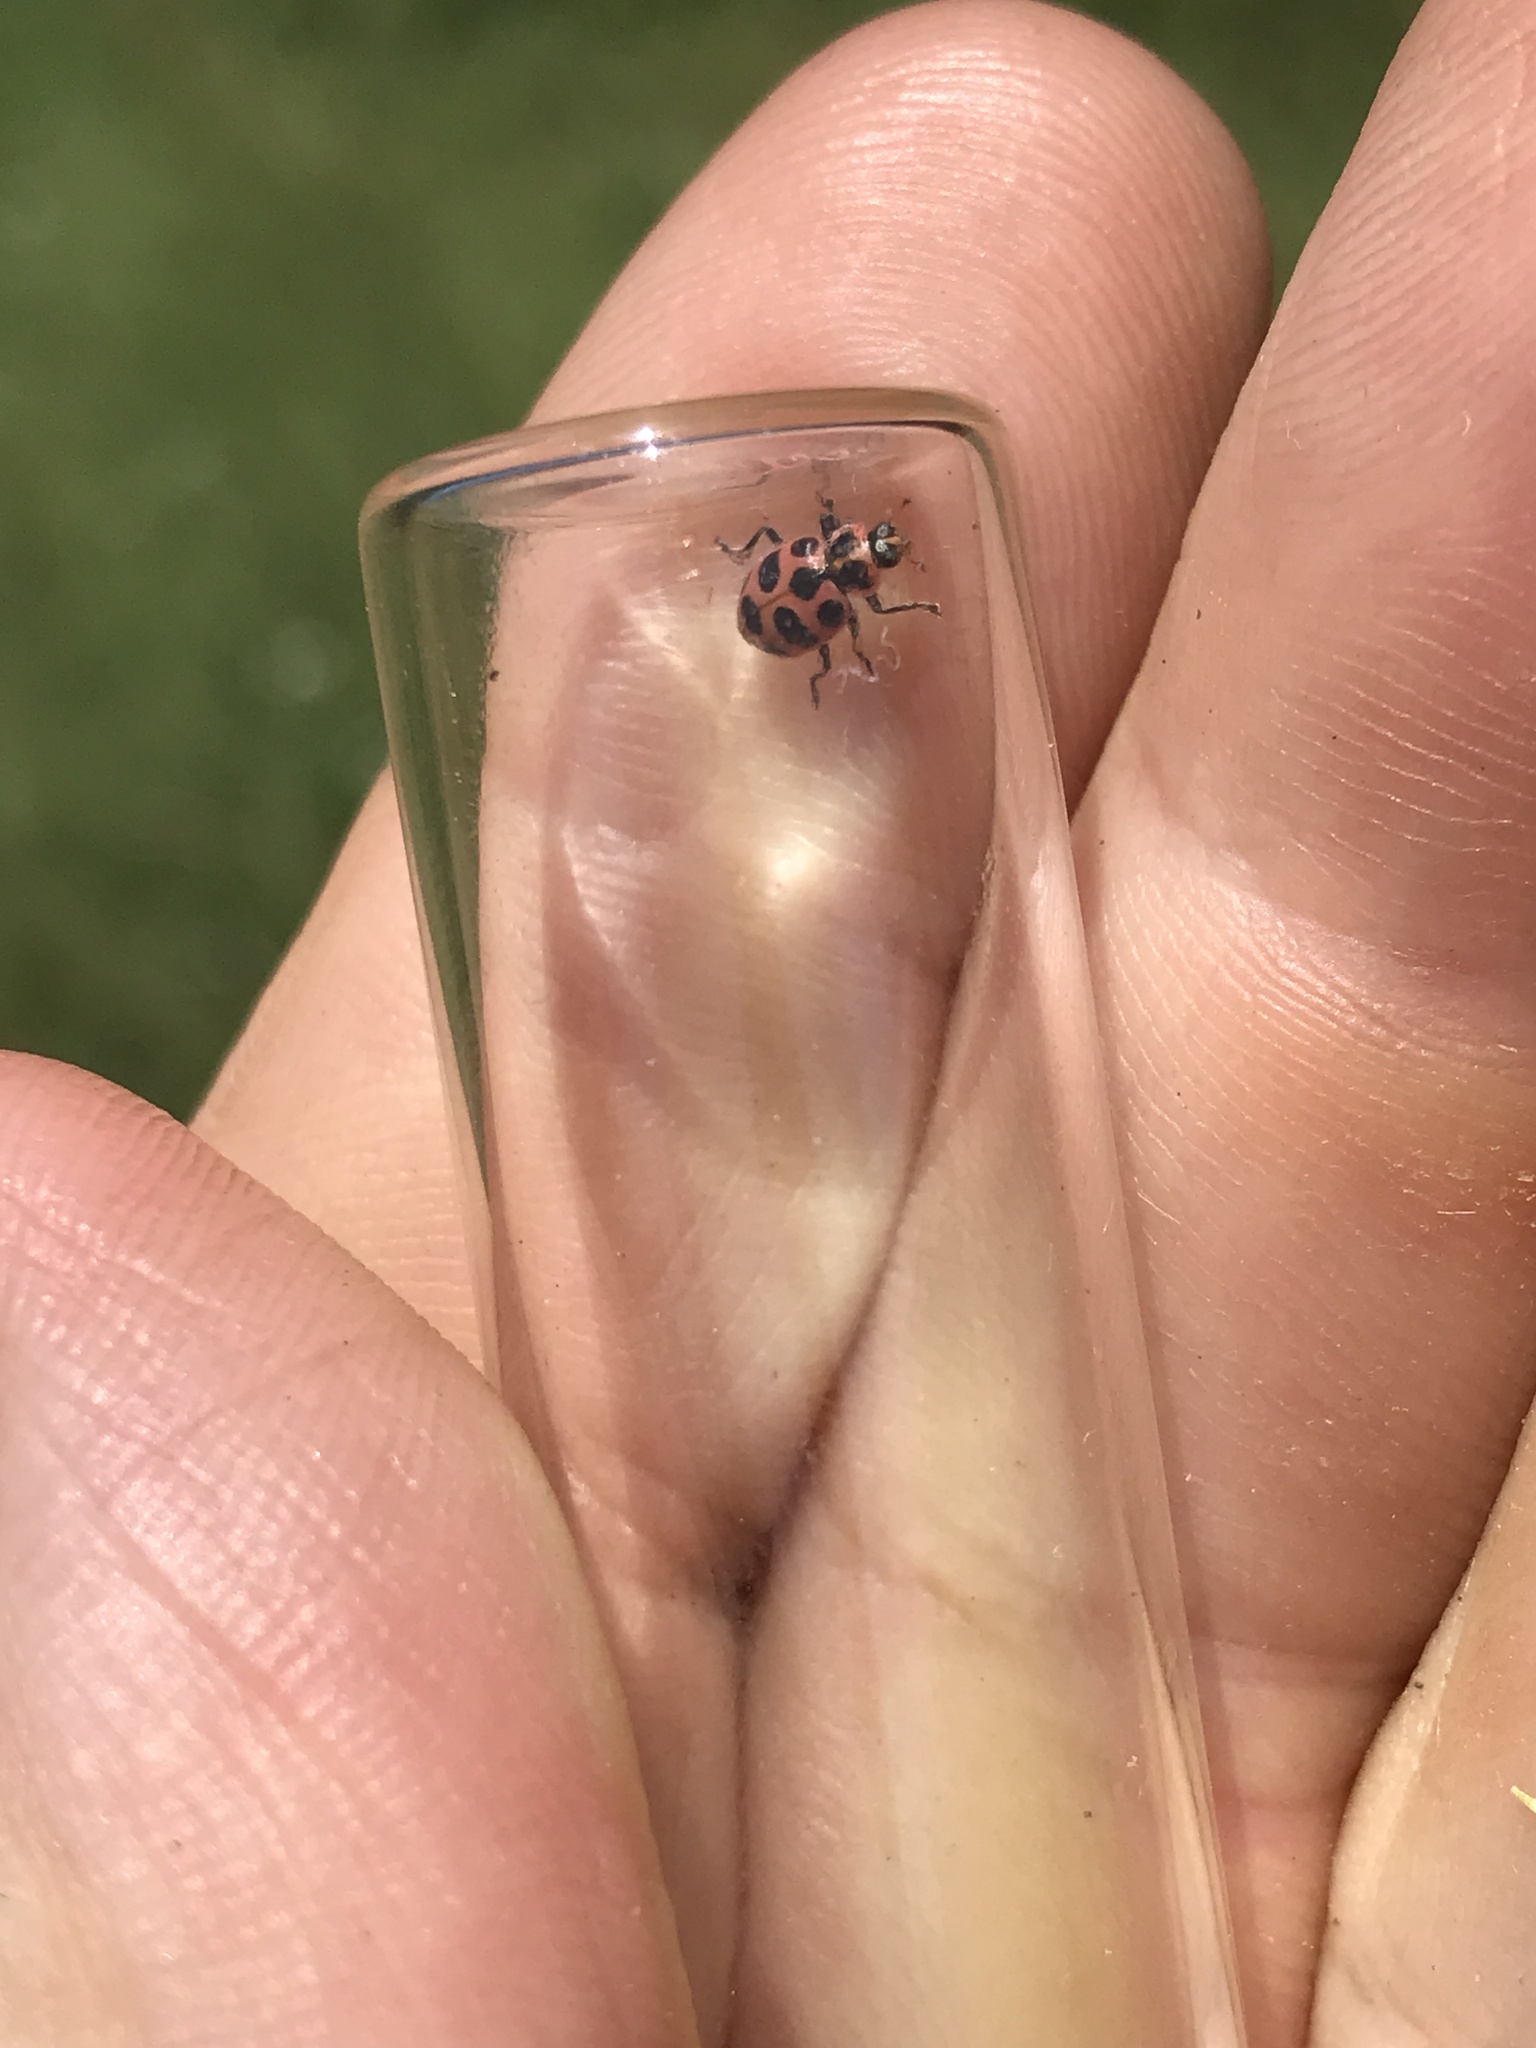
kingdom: Animalia
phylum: Arthropoda
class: Insecta
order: Coleoptera
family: Coccinellidae
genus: Coleomegilla
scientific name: Coleomegilla maculata
